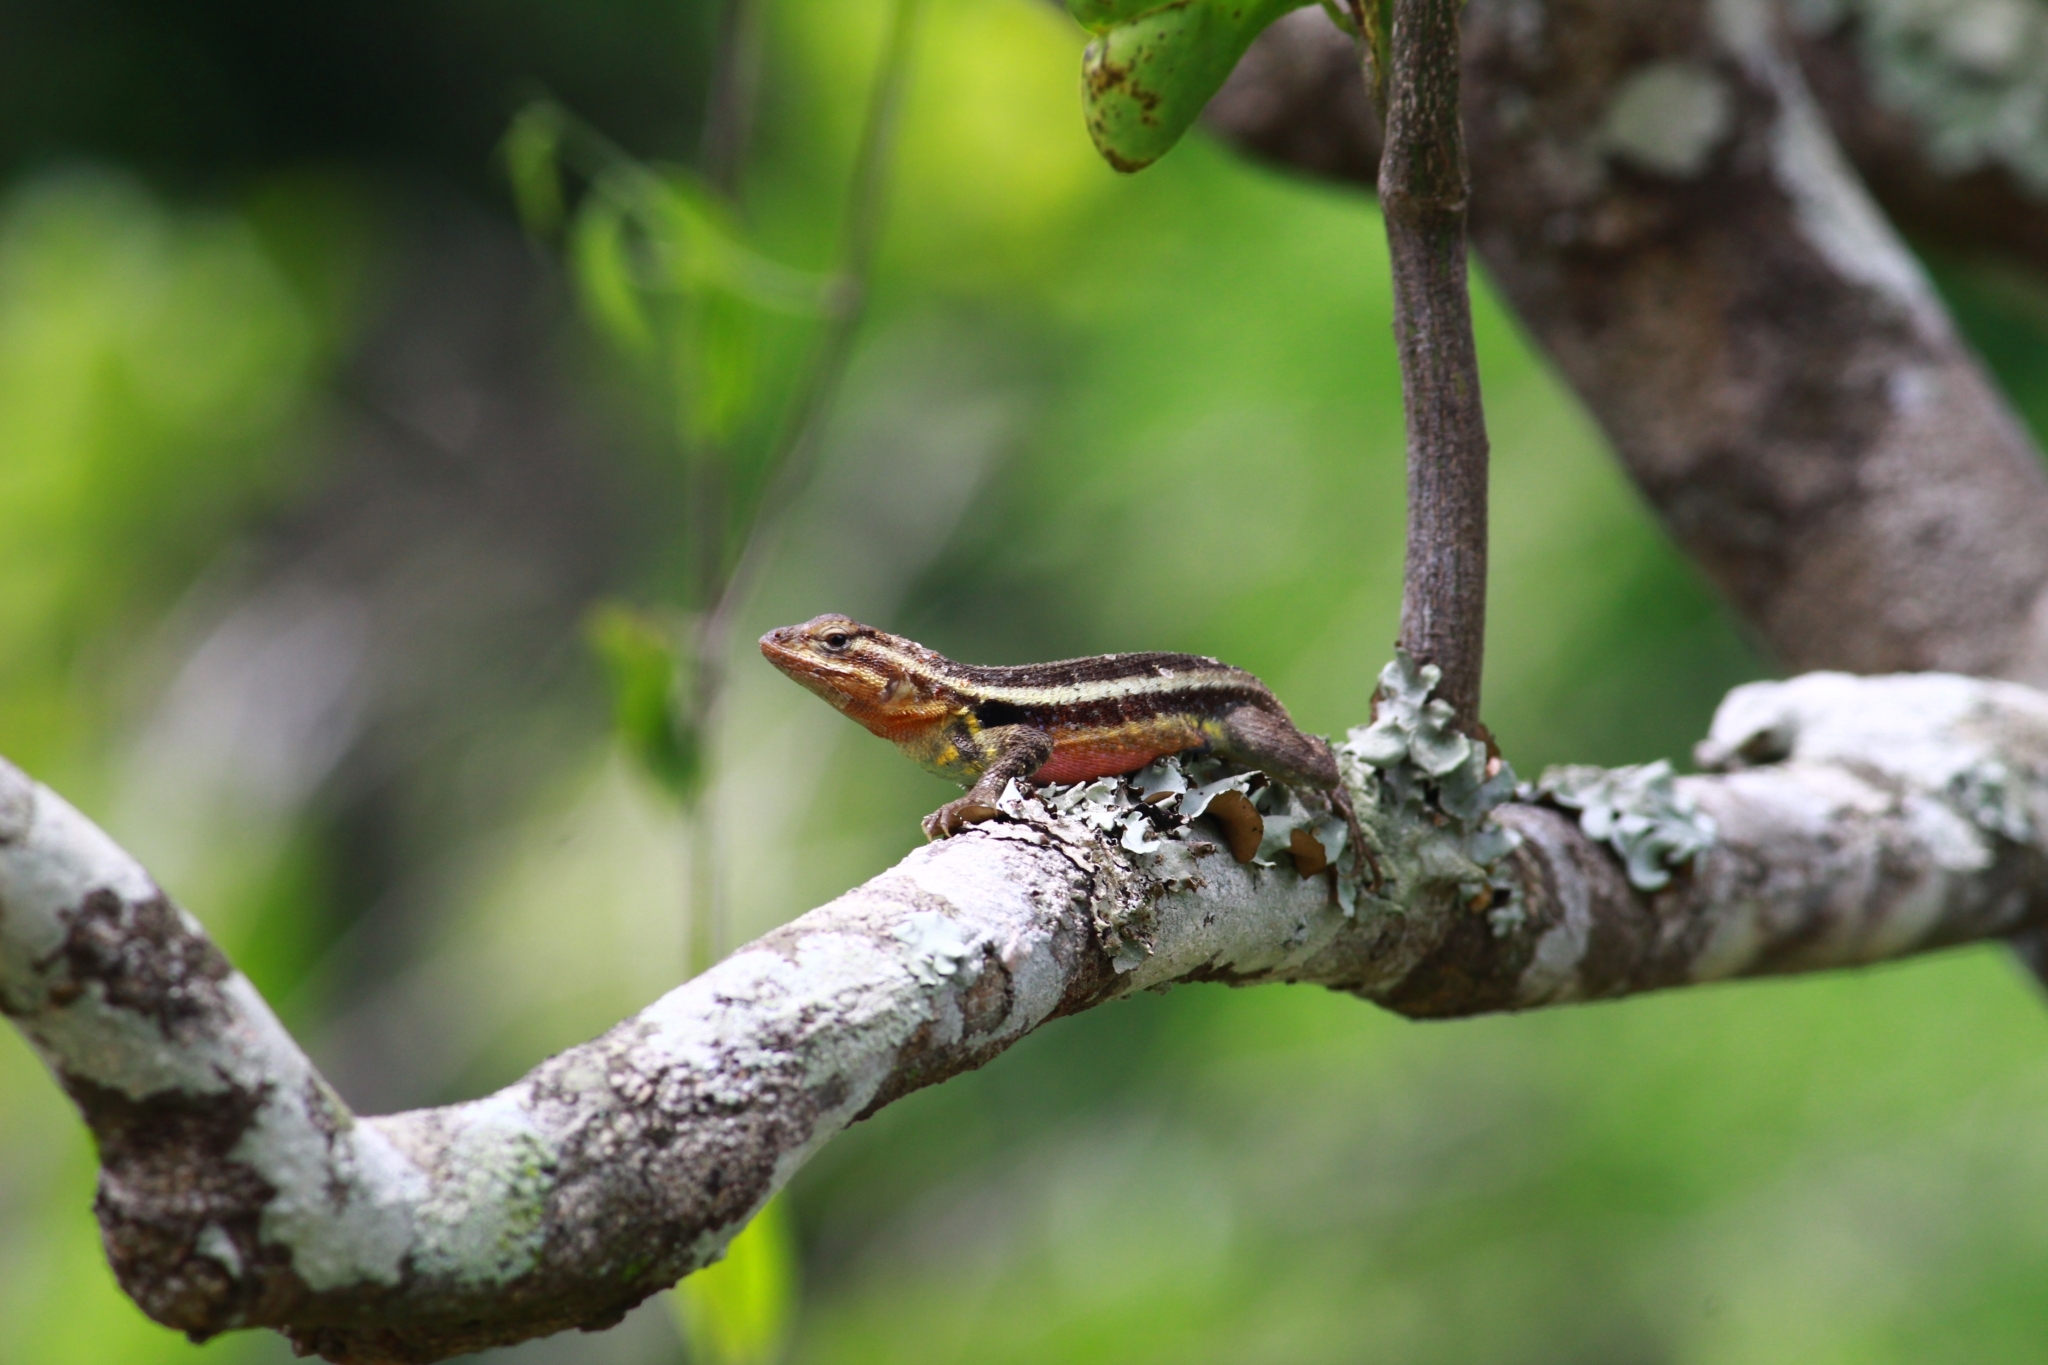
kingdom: Animalia
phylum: Chordata
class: Squamata
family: Phrynosomatidae
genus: Sceloporus
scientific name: Sceloporus variabilis
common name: Rosebelly lizard
